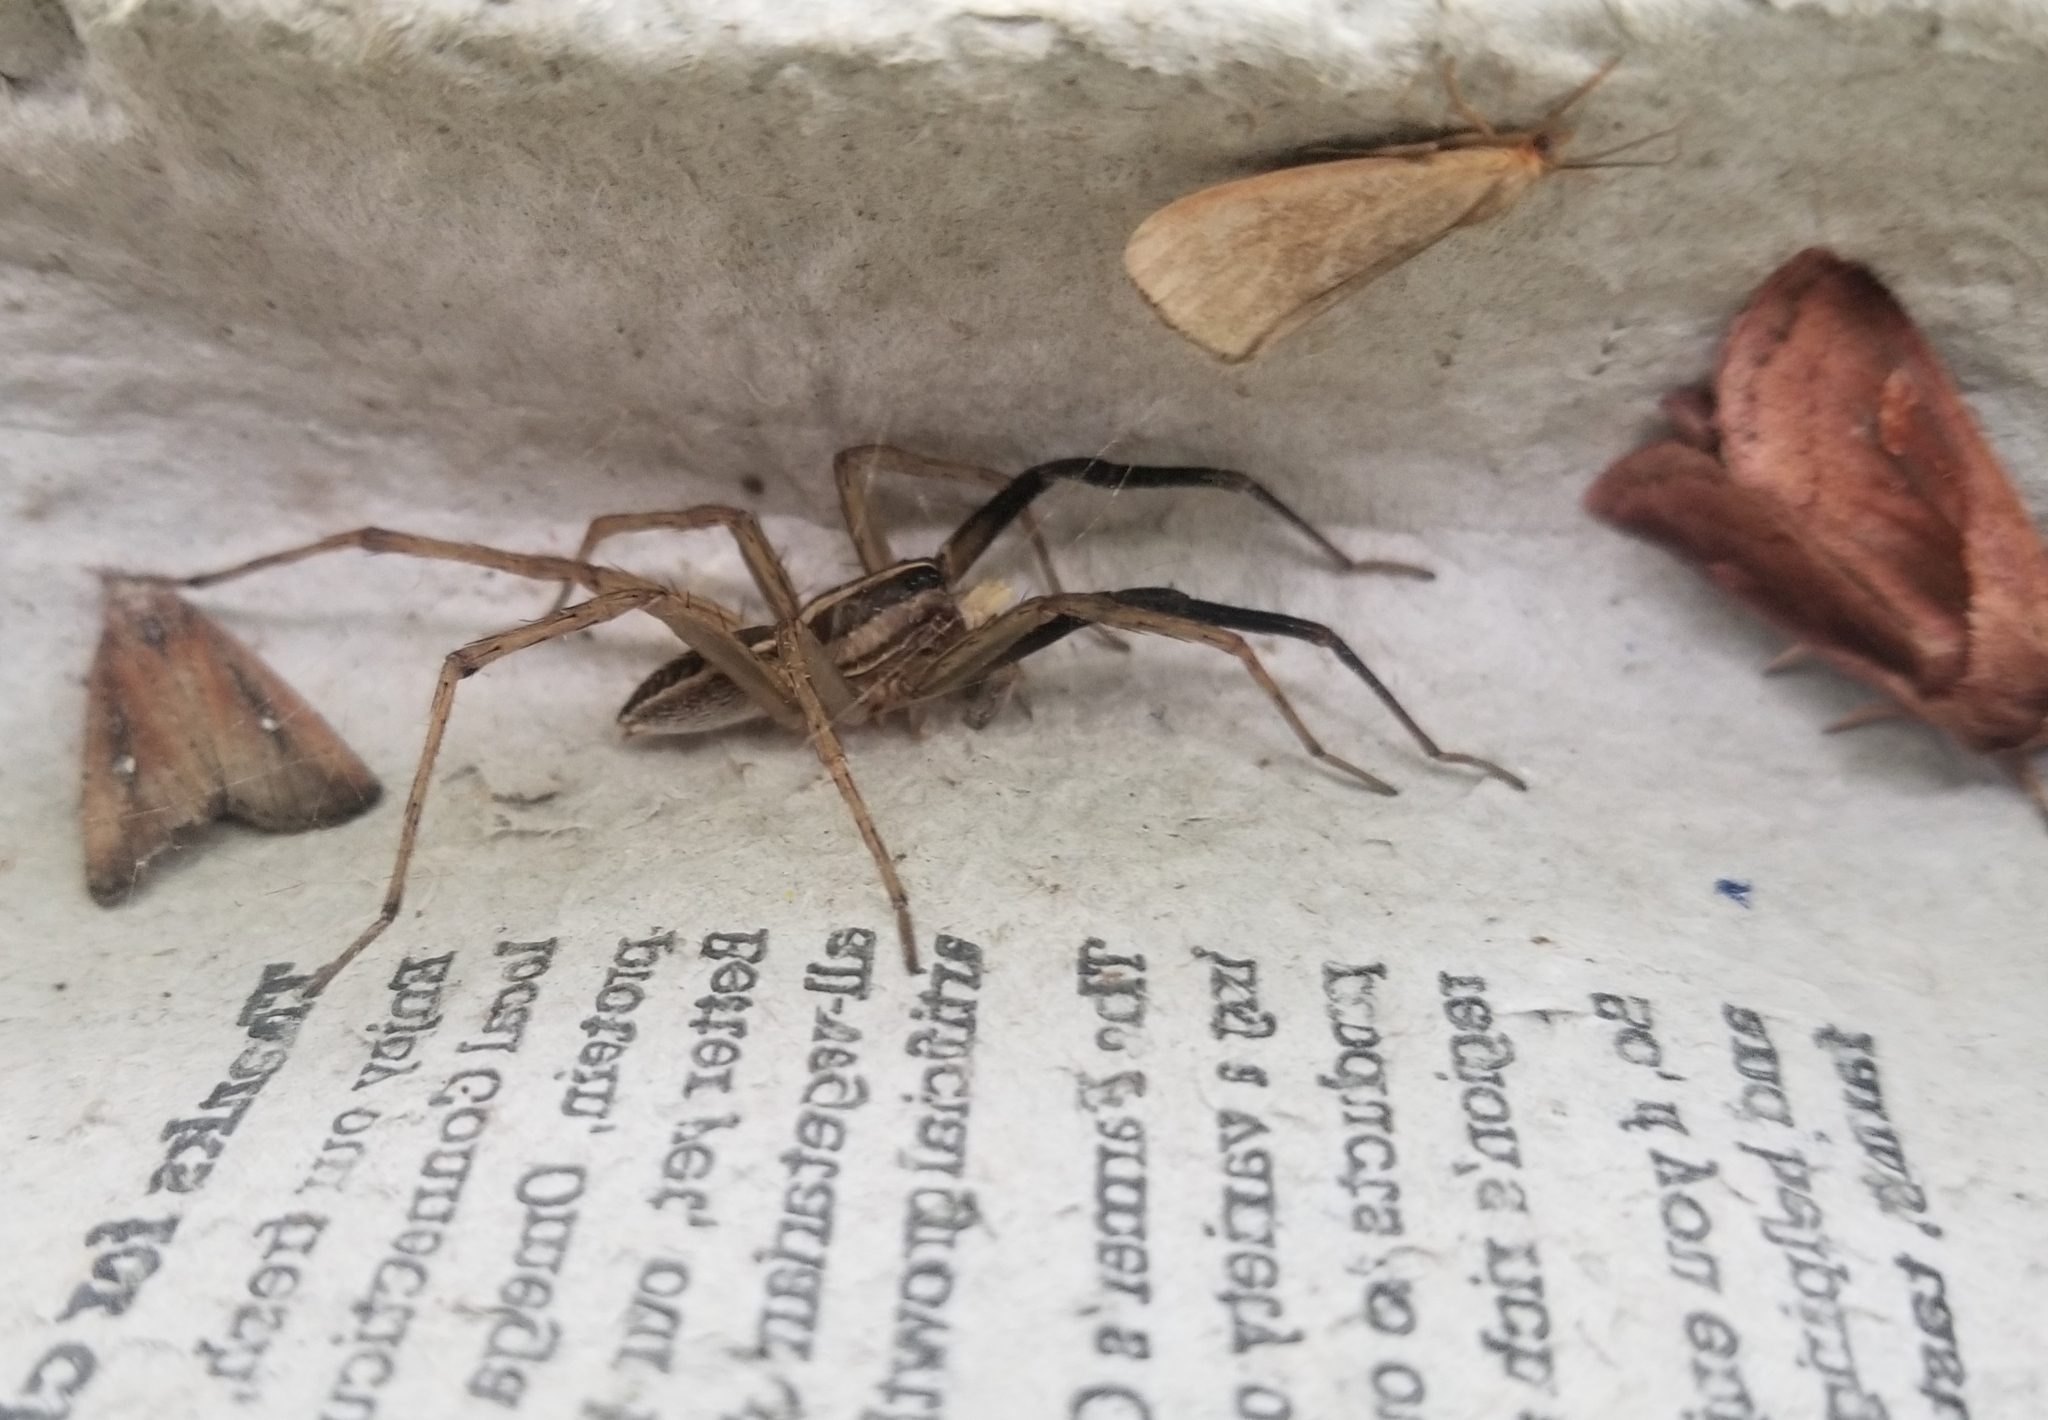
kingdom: Animalia
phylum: Arthropoda
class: Arachnida
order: Araneae
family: Lycosidae
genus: Rabidosa
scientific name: Rabidosa rabida
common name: Rabid wolf spider
